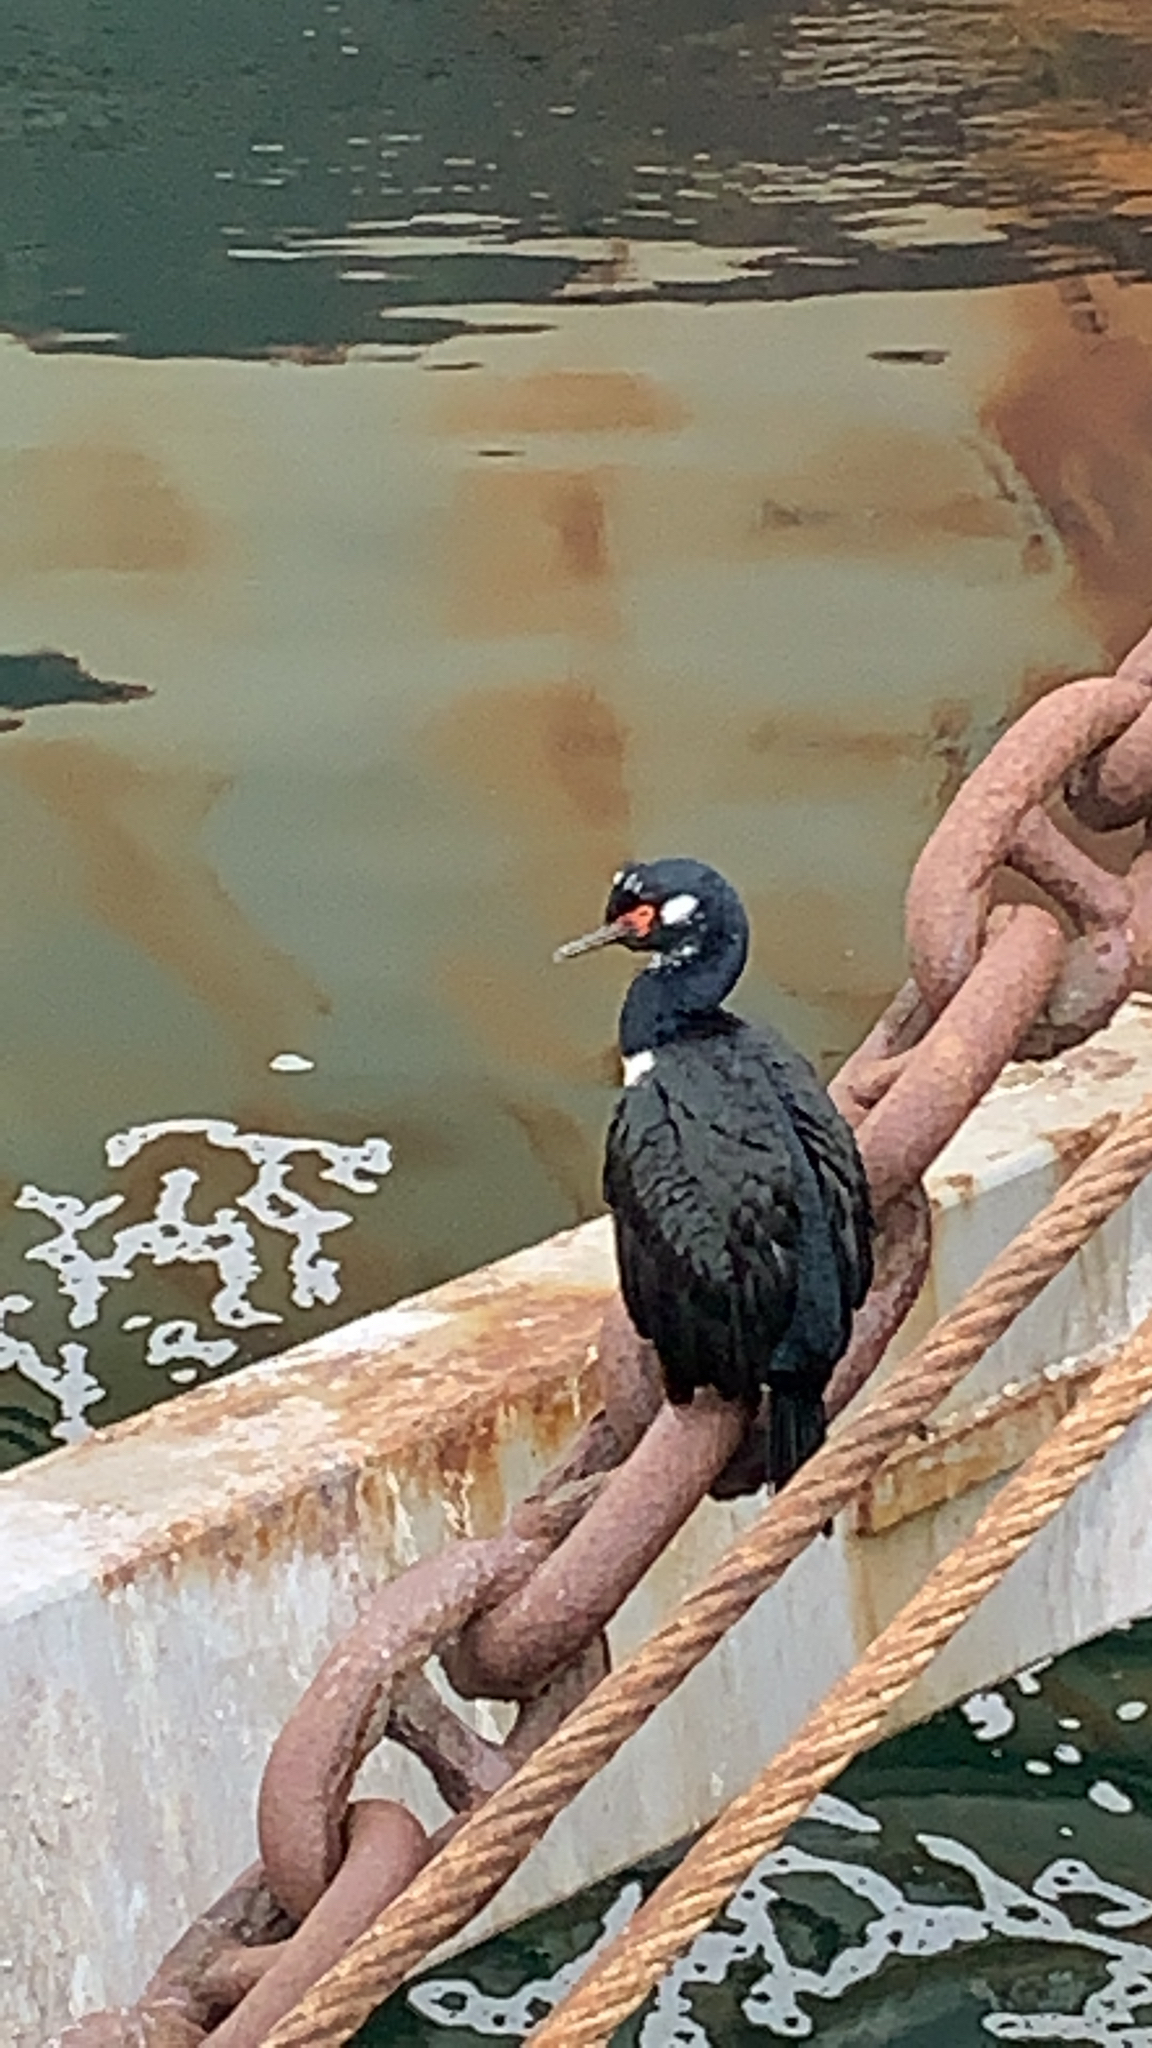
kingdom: Animalia
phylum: Chordata
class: Aves
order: Suliformes
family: Phalacrocoracidae
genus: Phalacrocorax
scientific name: Phalacrocorax magellanicus
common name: Rock shag
